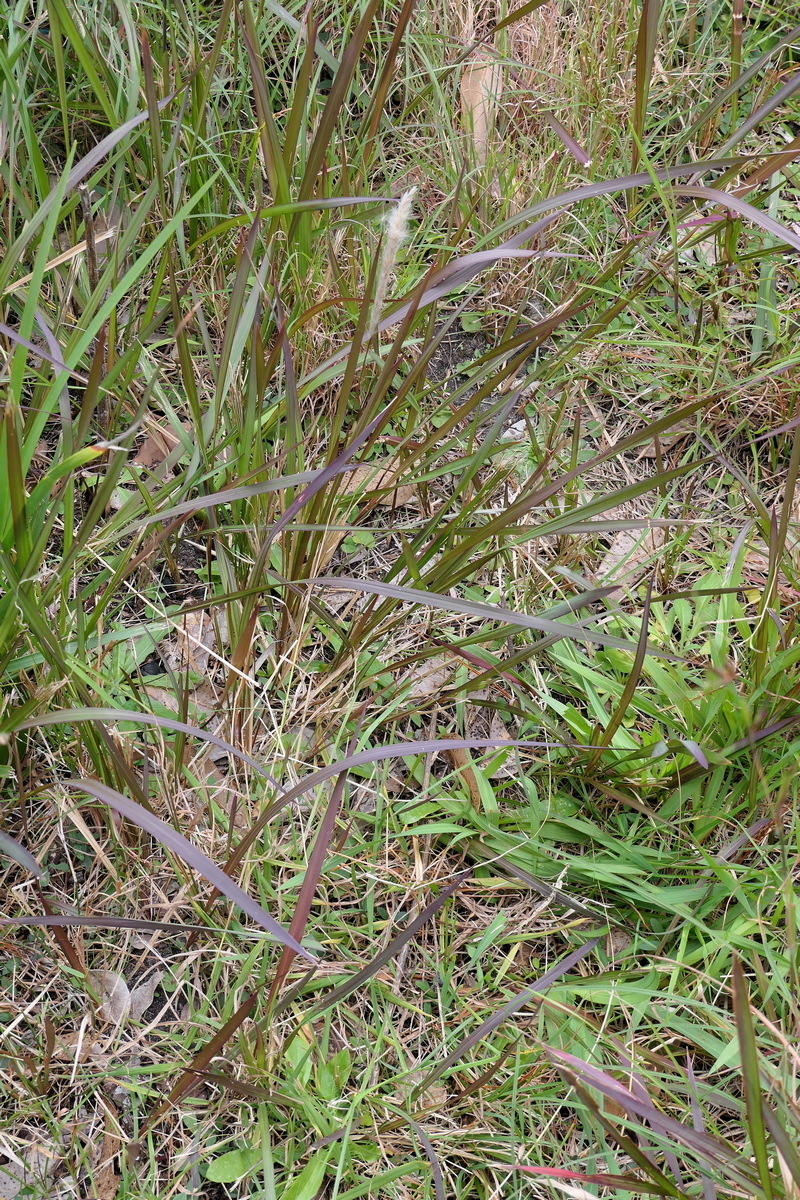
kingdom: Plantae
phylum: Tracheophyta
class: Liliopsida
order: Poales
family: Poaceae
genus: Imperata
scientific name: Imperata cylindrica
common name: Cogongrass
